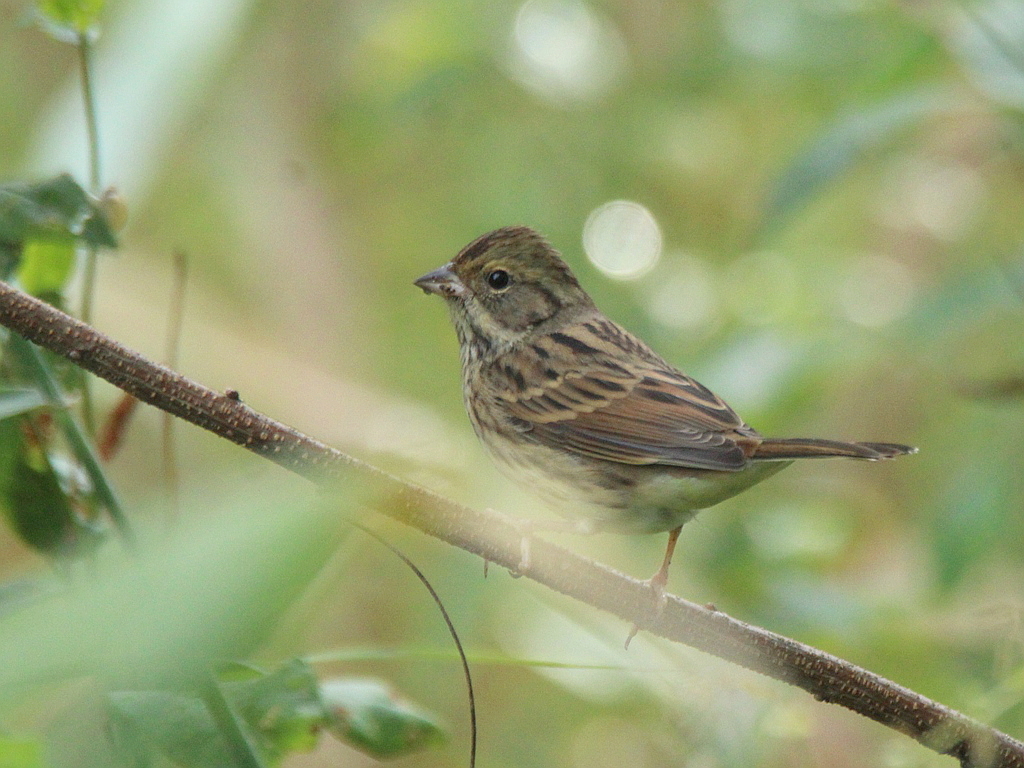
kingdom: Animalia
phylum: Chordata
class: Aves
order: Passeriformes
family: Emberizidae
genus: Emberiza
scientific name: Emberiza spodocephala
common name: Black-faced bunting
